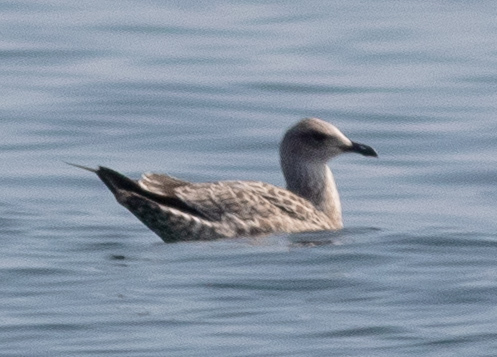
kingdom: Animalia
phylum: Chordata
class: Aves
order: Charadriiformes
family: Laridae
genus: Larus
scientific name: Larus fuscus
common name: Lesser black-backed gull
